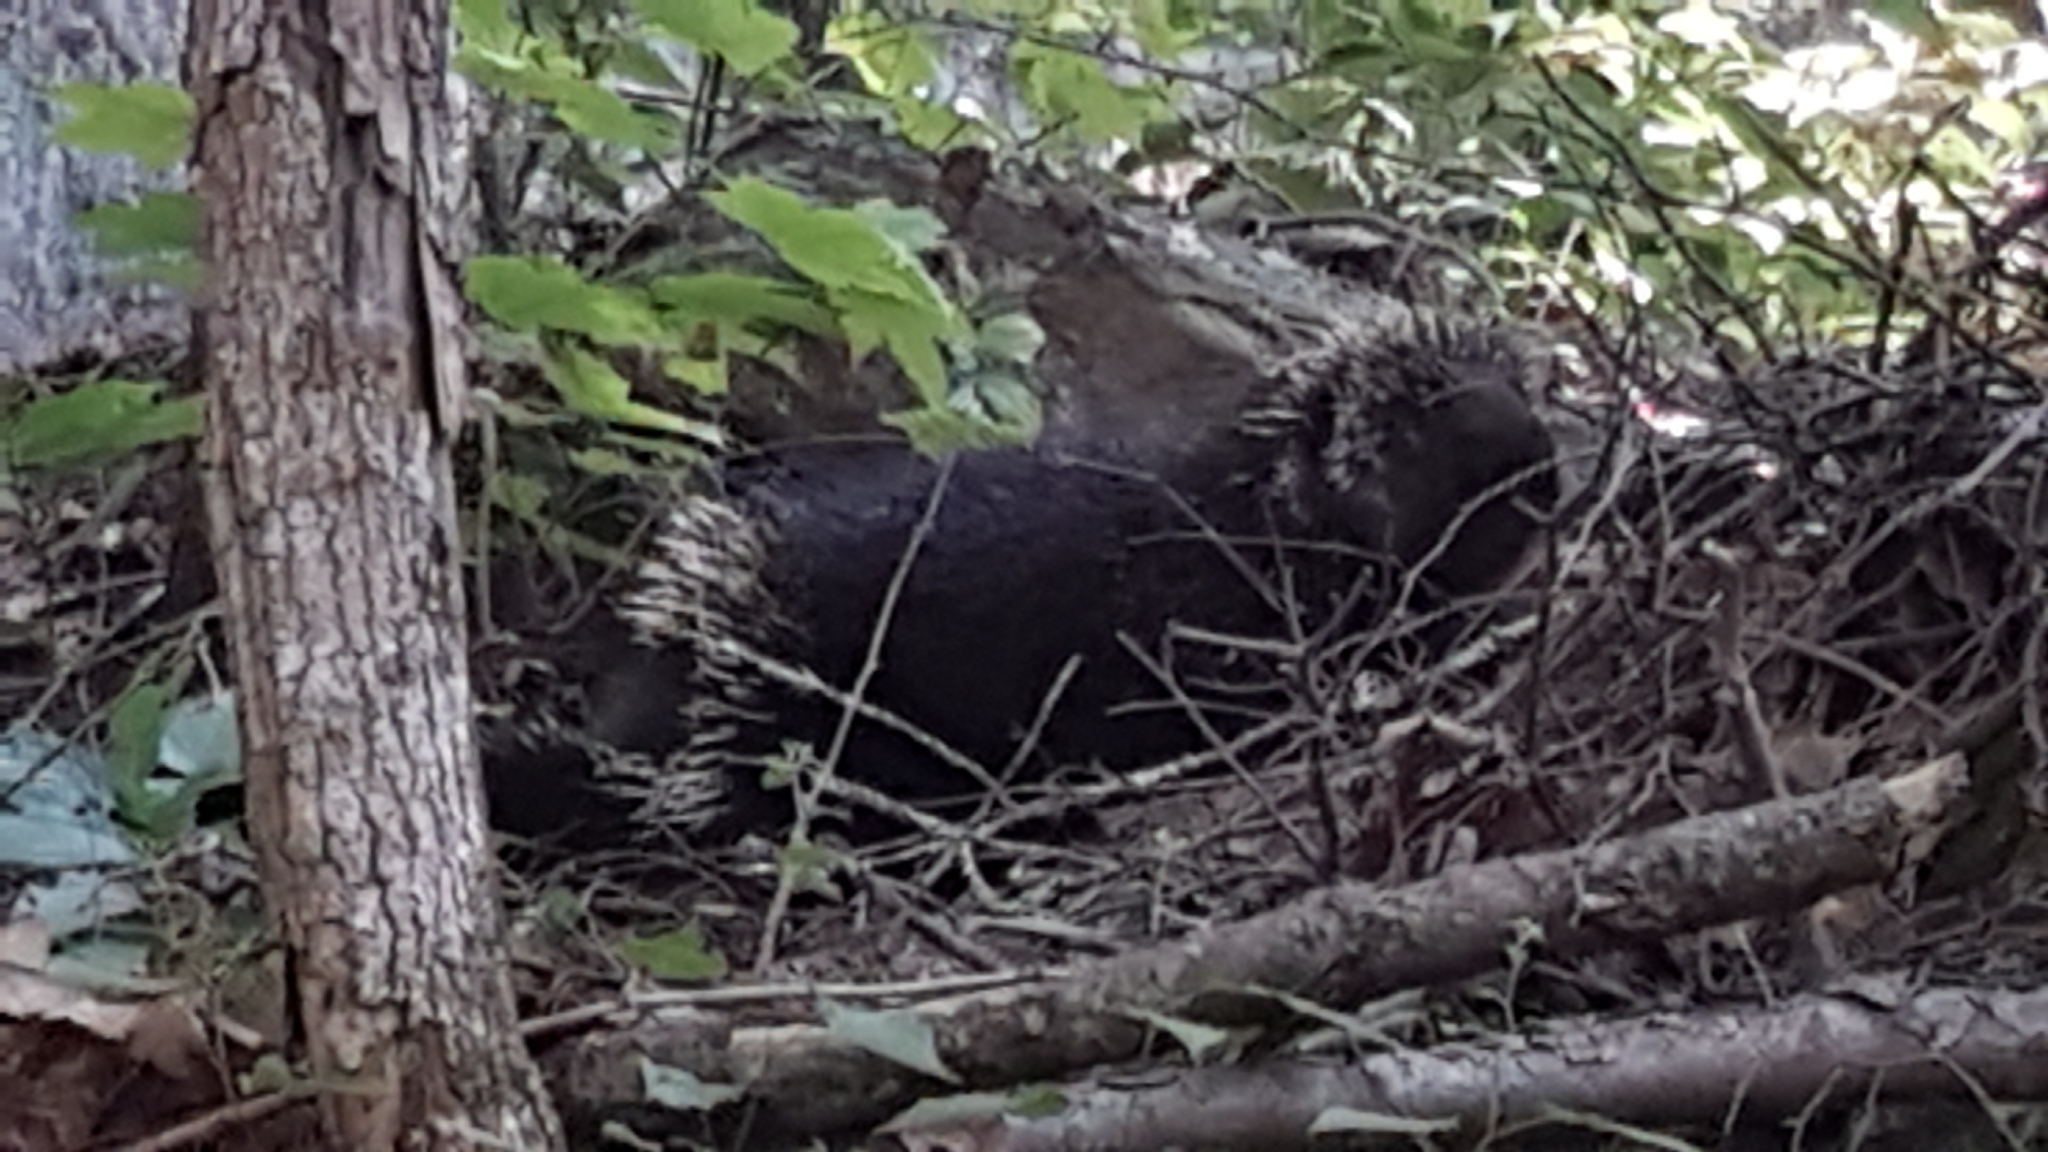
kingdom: Animalia
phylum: Chordata
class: Mammalia
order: Rodentia
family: Erethizontidae
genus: Erethizon
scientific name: Erethizon dorsatus
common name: North american porcupine
